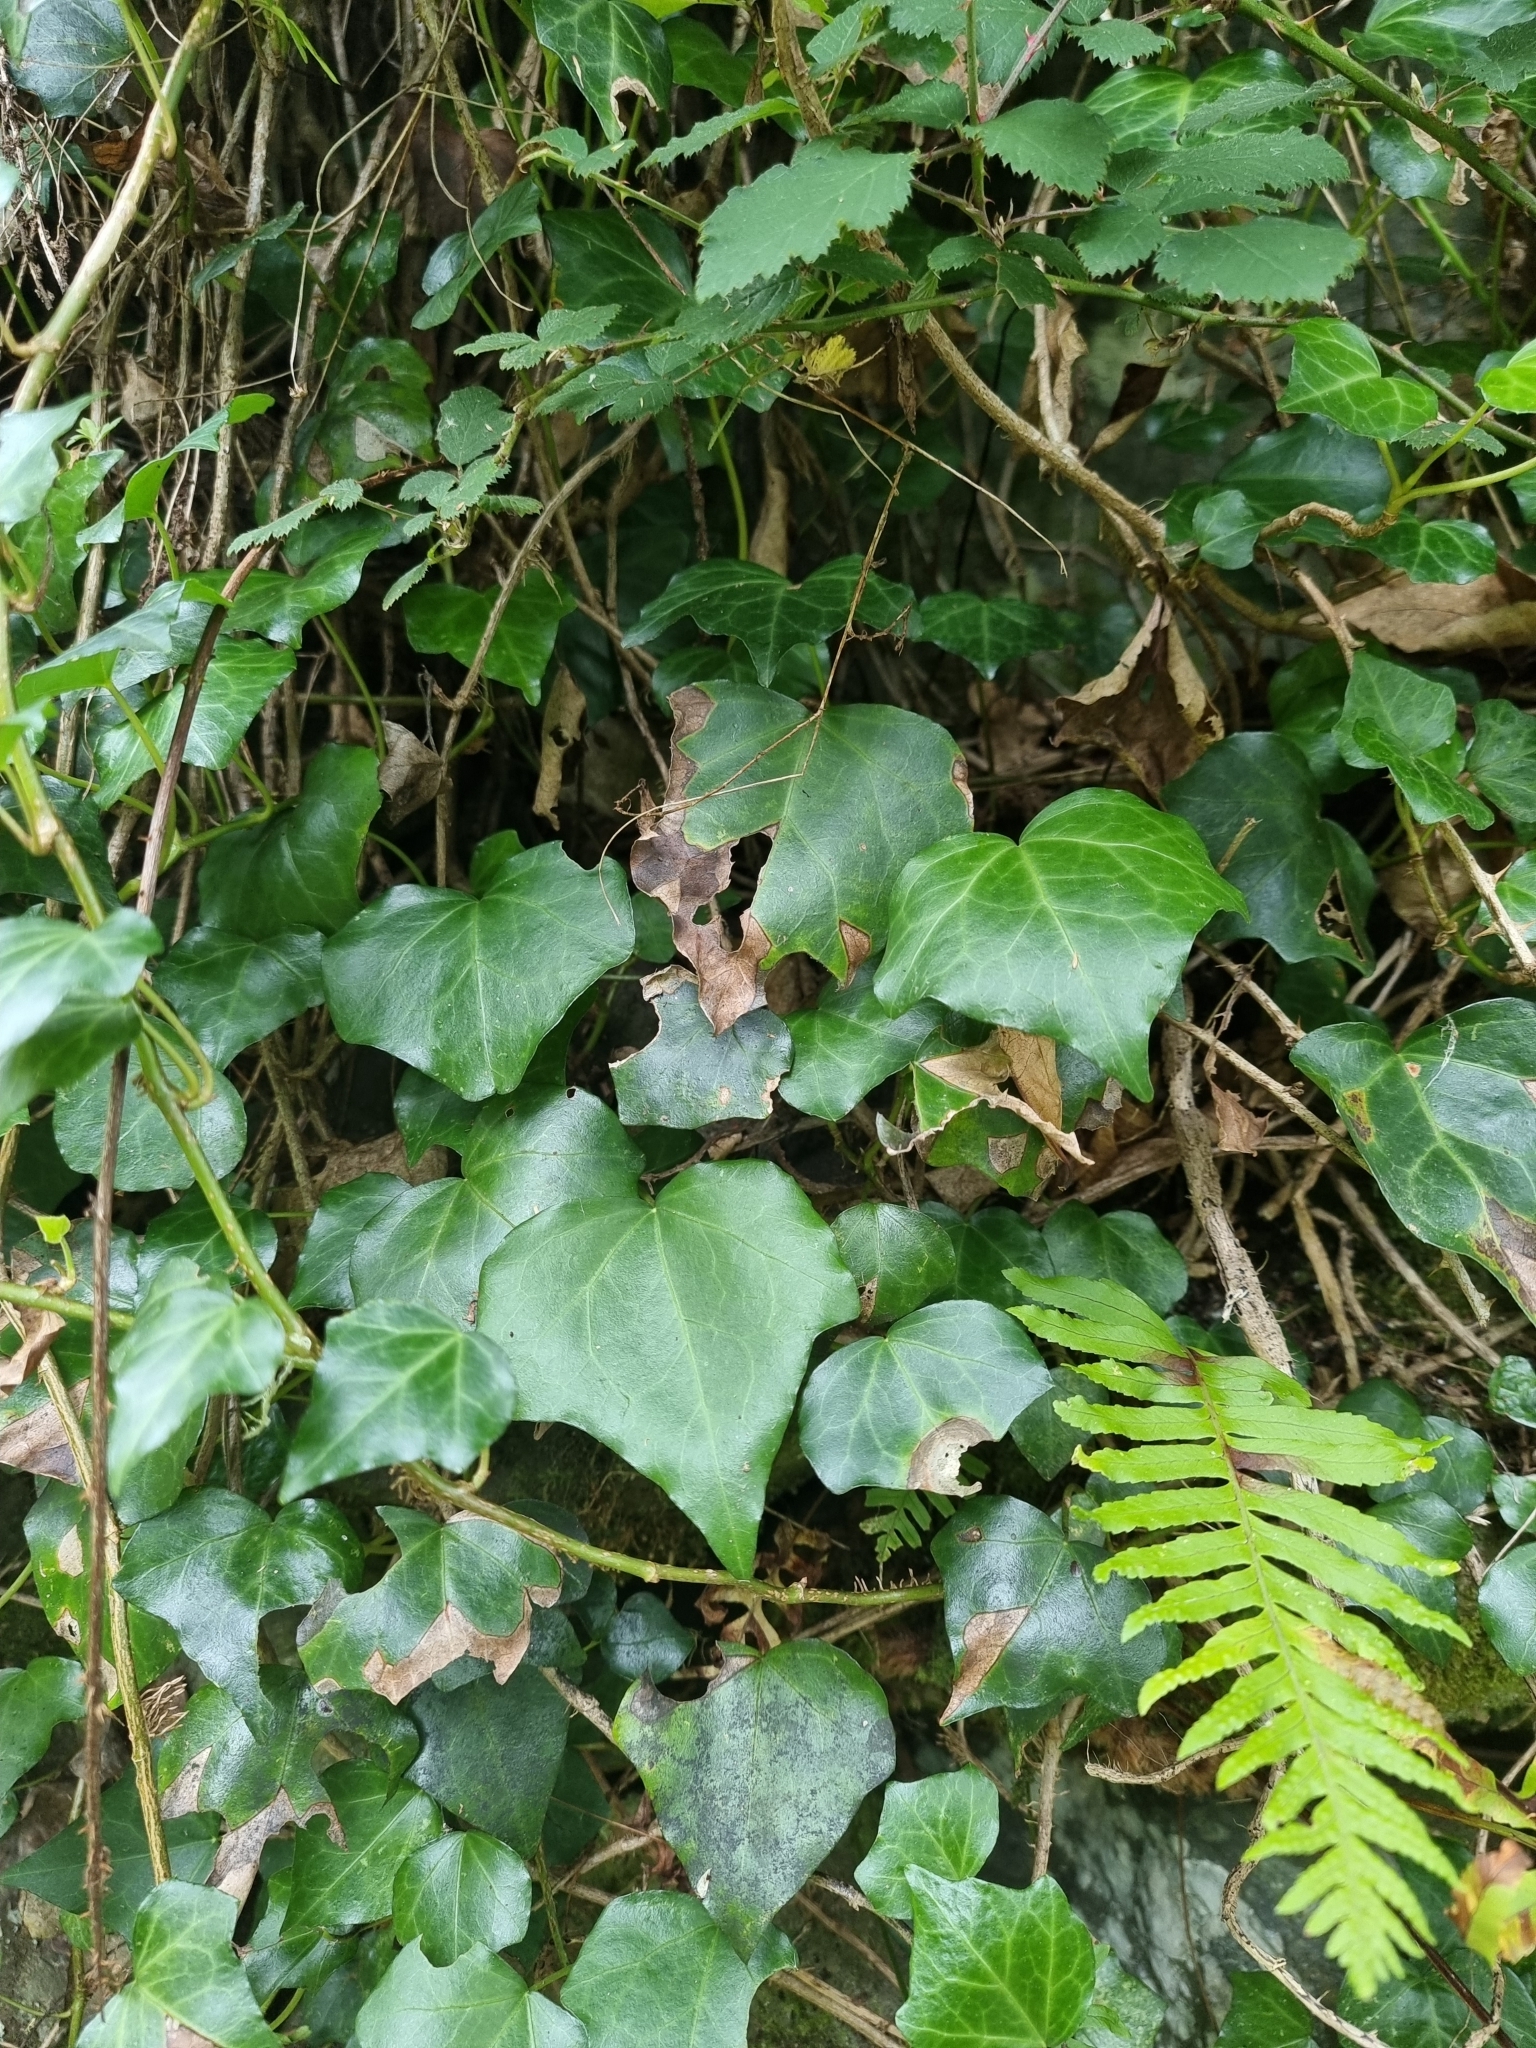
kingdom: Plantae
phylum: Tracheophyta
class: Magnoliopsida
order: Apiales
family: Araliaceae
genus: Hedera
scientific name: Hedera maderensis
